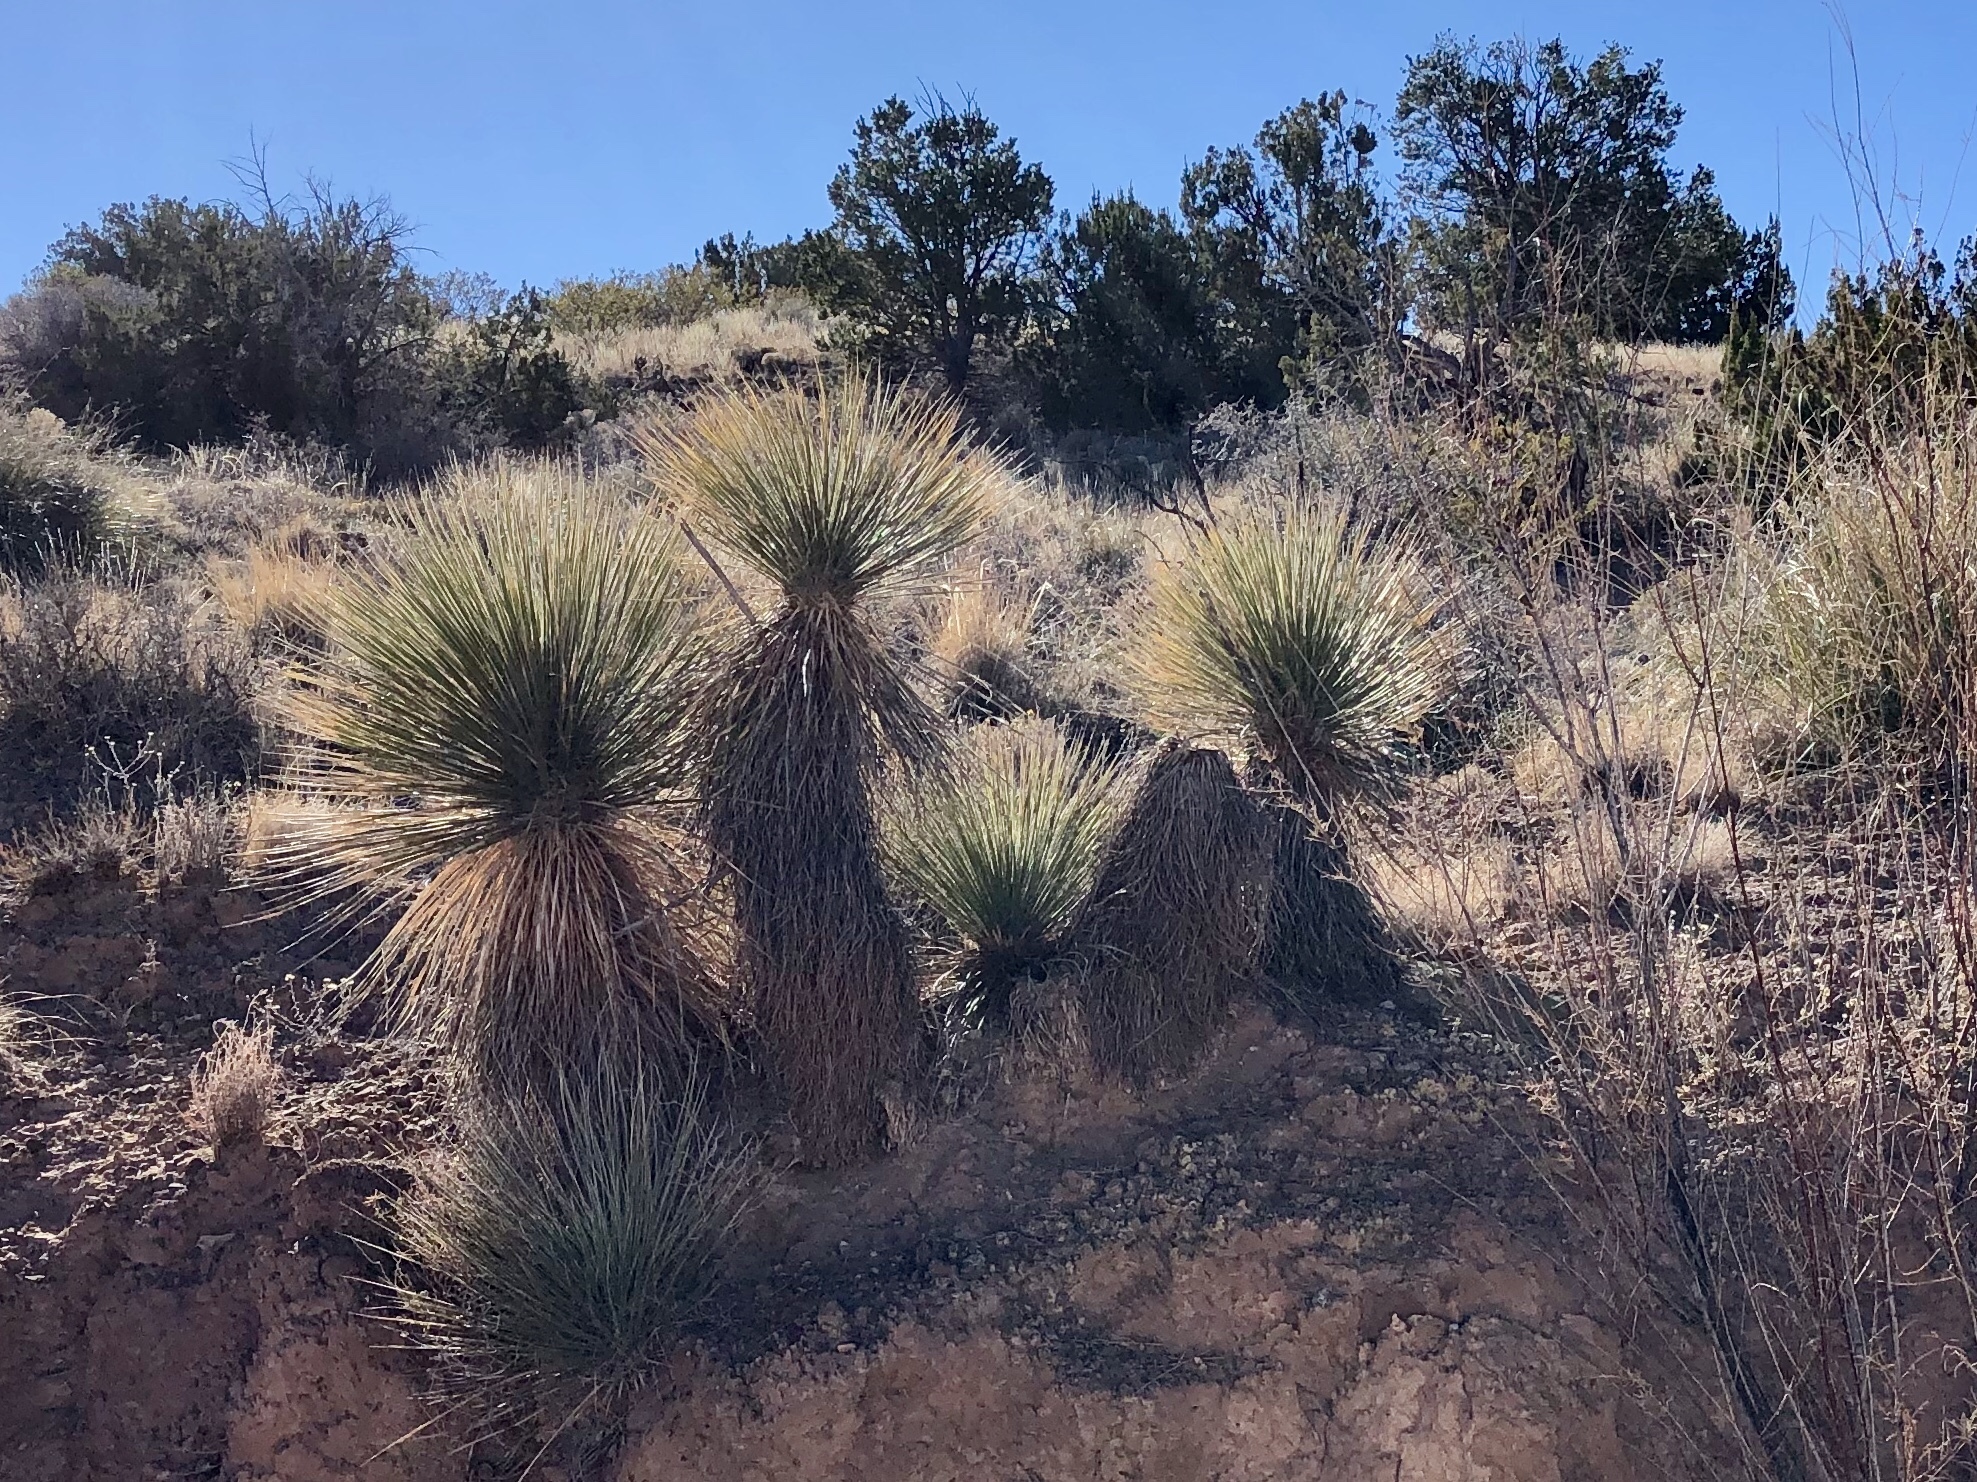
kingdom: Plantae
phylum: Tracheophyta
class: Liliopsida
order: Asparagales
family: Asparagaceae
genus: Yucca
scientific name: Yucca elata
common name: Palmella
